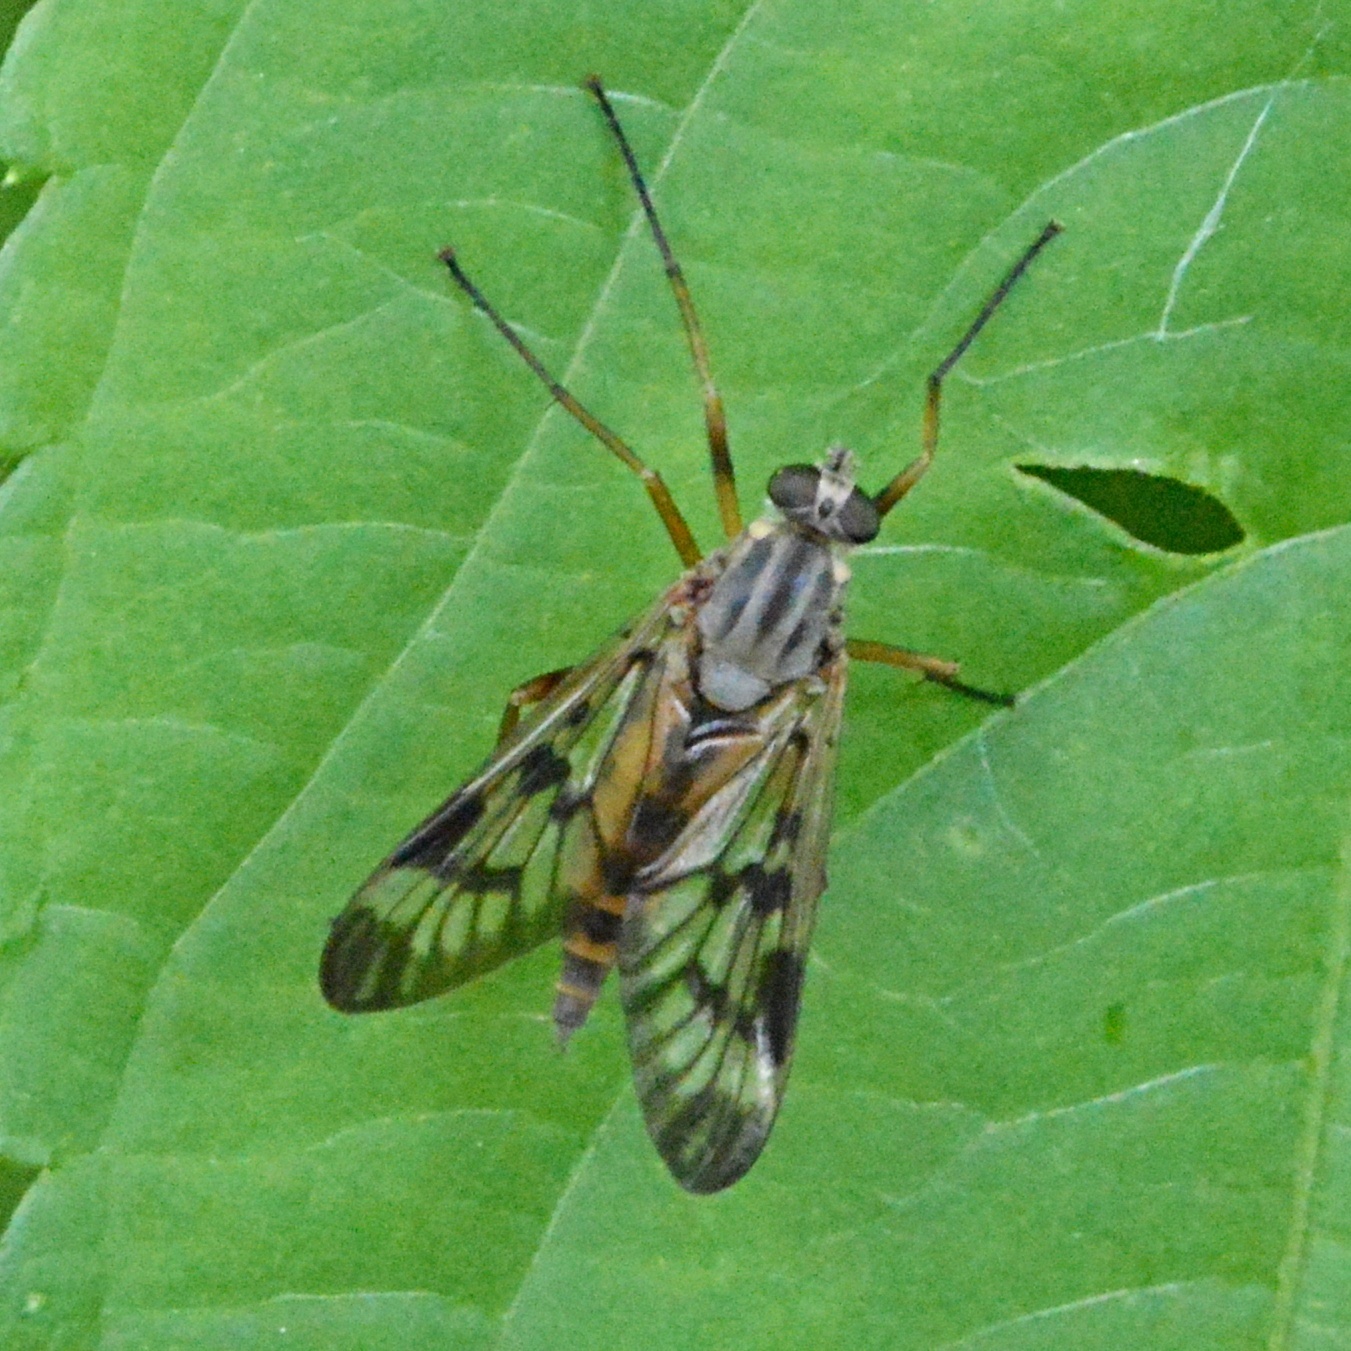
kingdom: Animalia
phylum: Arthropoda
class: Insecta
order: Diptera
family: Rhagionidae
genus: Rhagio
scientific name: Rhagio scolopacea
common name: Downlooker snipefly
